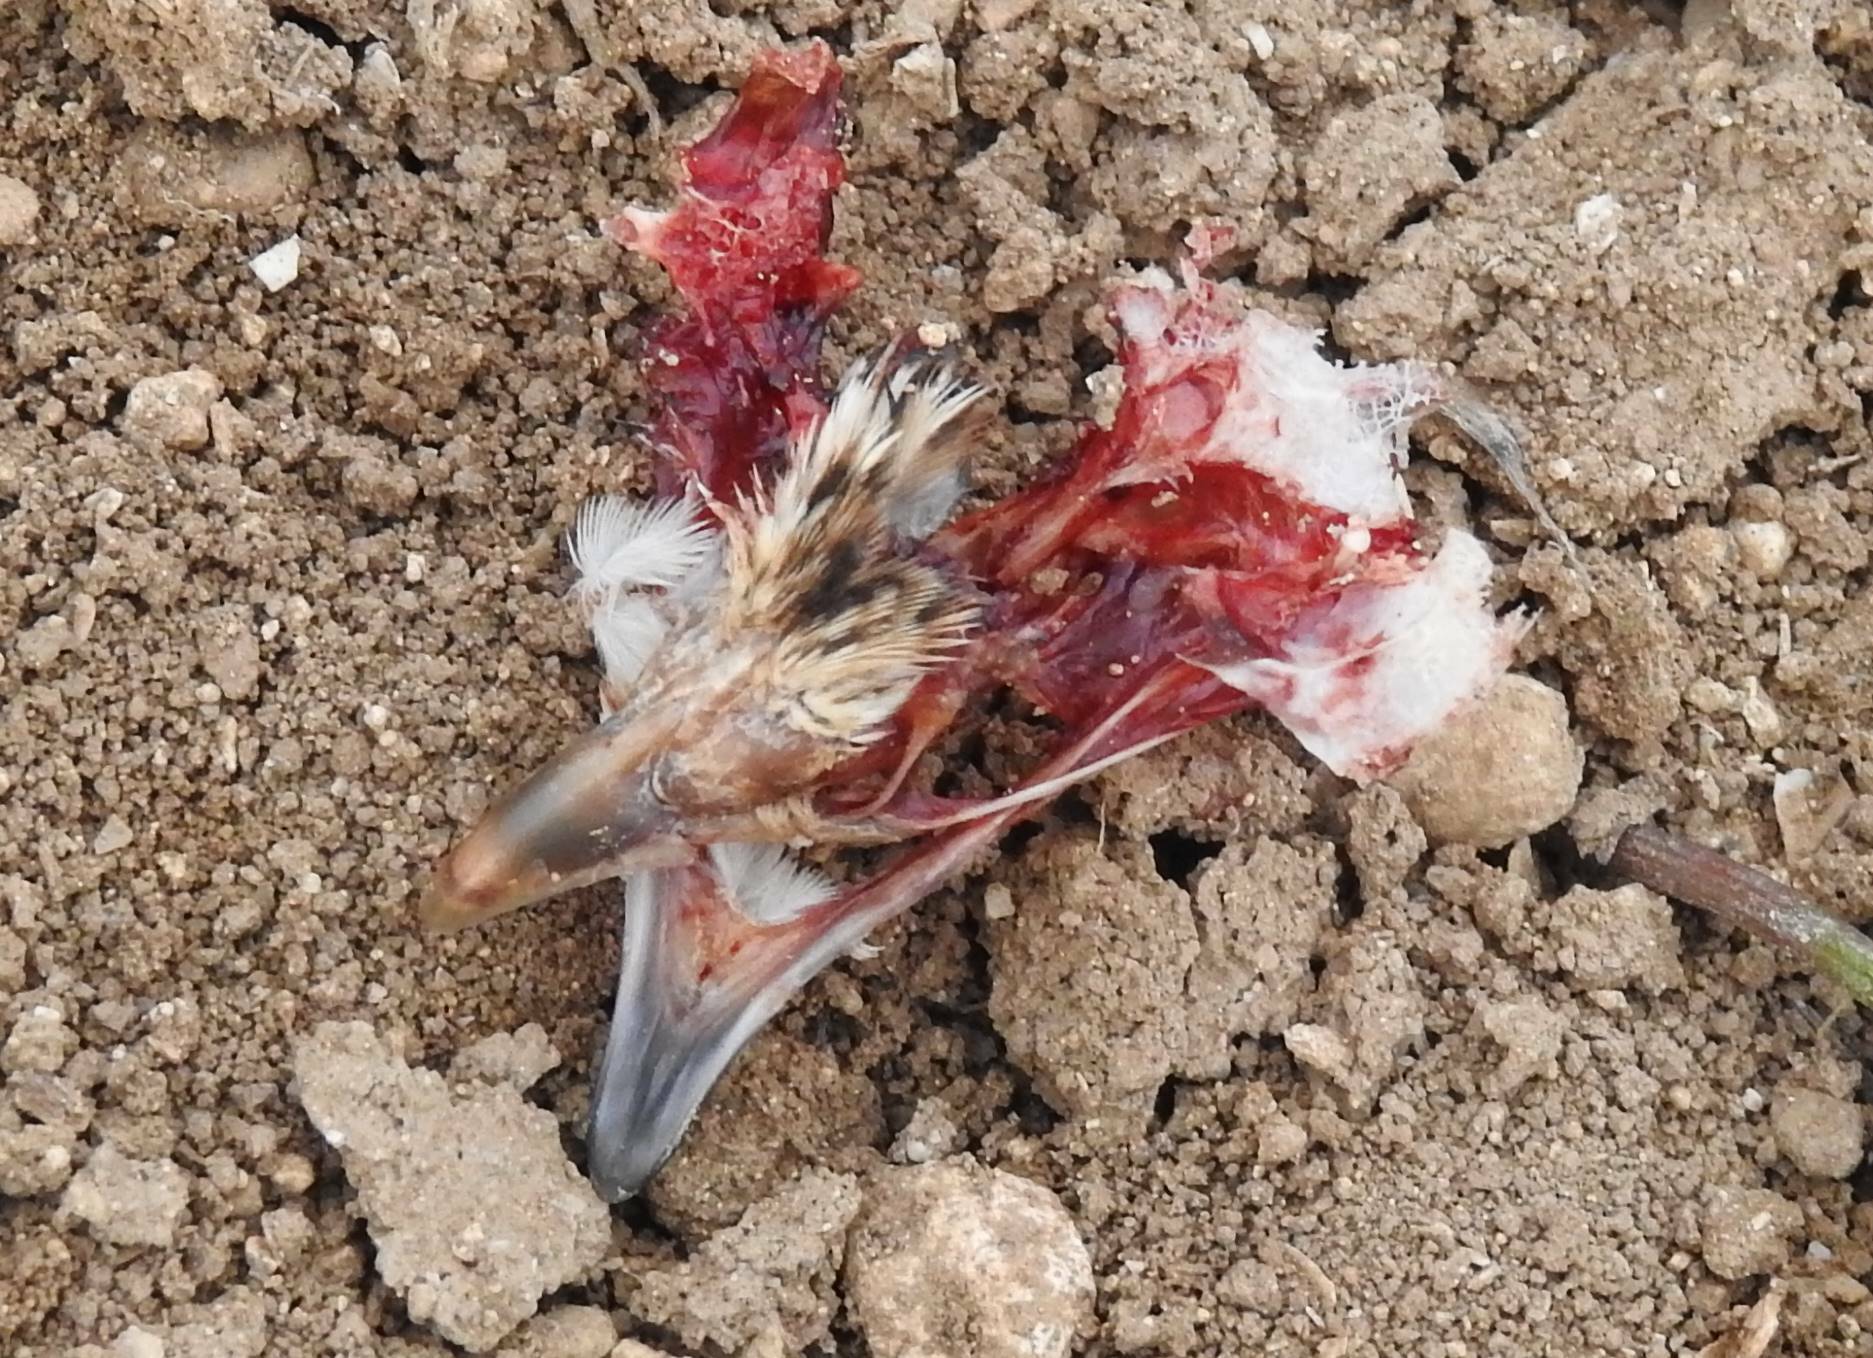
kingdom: Animalia
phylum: Chordata
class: Aves
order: Galliformes
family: Phasianidae
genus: Coturnix
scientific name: Coturnix coturnix
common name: Common quail
